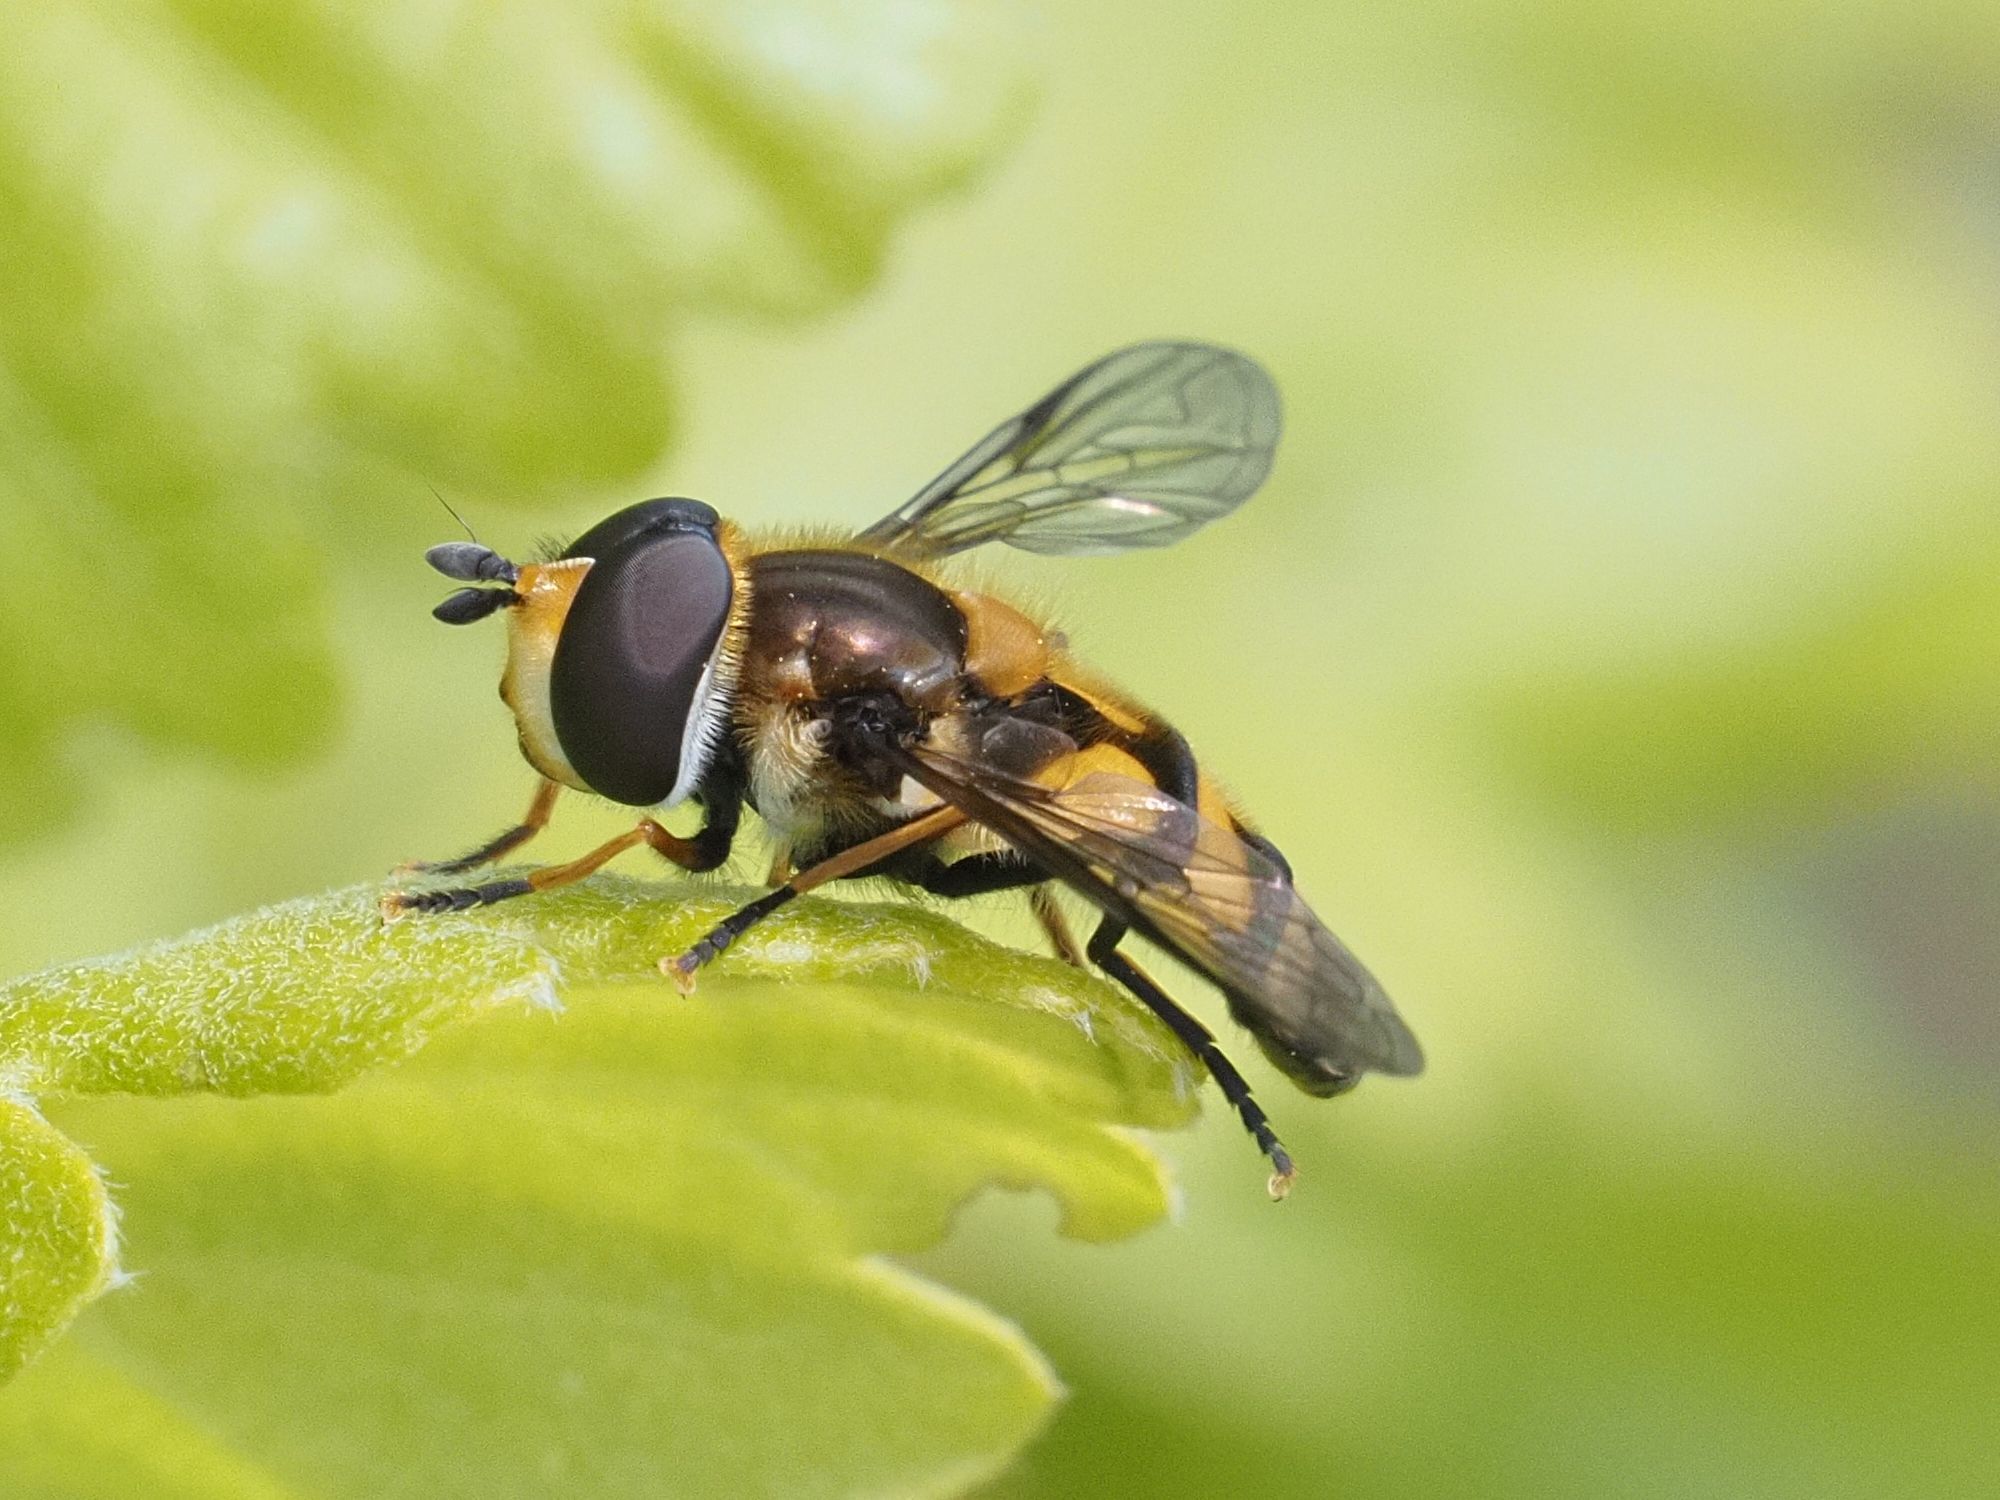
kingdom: Animalia
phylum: Arthropoda
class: Insecta
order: Diptera
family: Syrphidae
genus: Didea
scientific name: Didea fasciata
